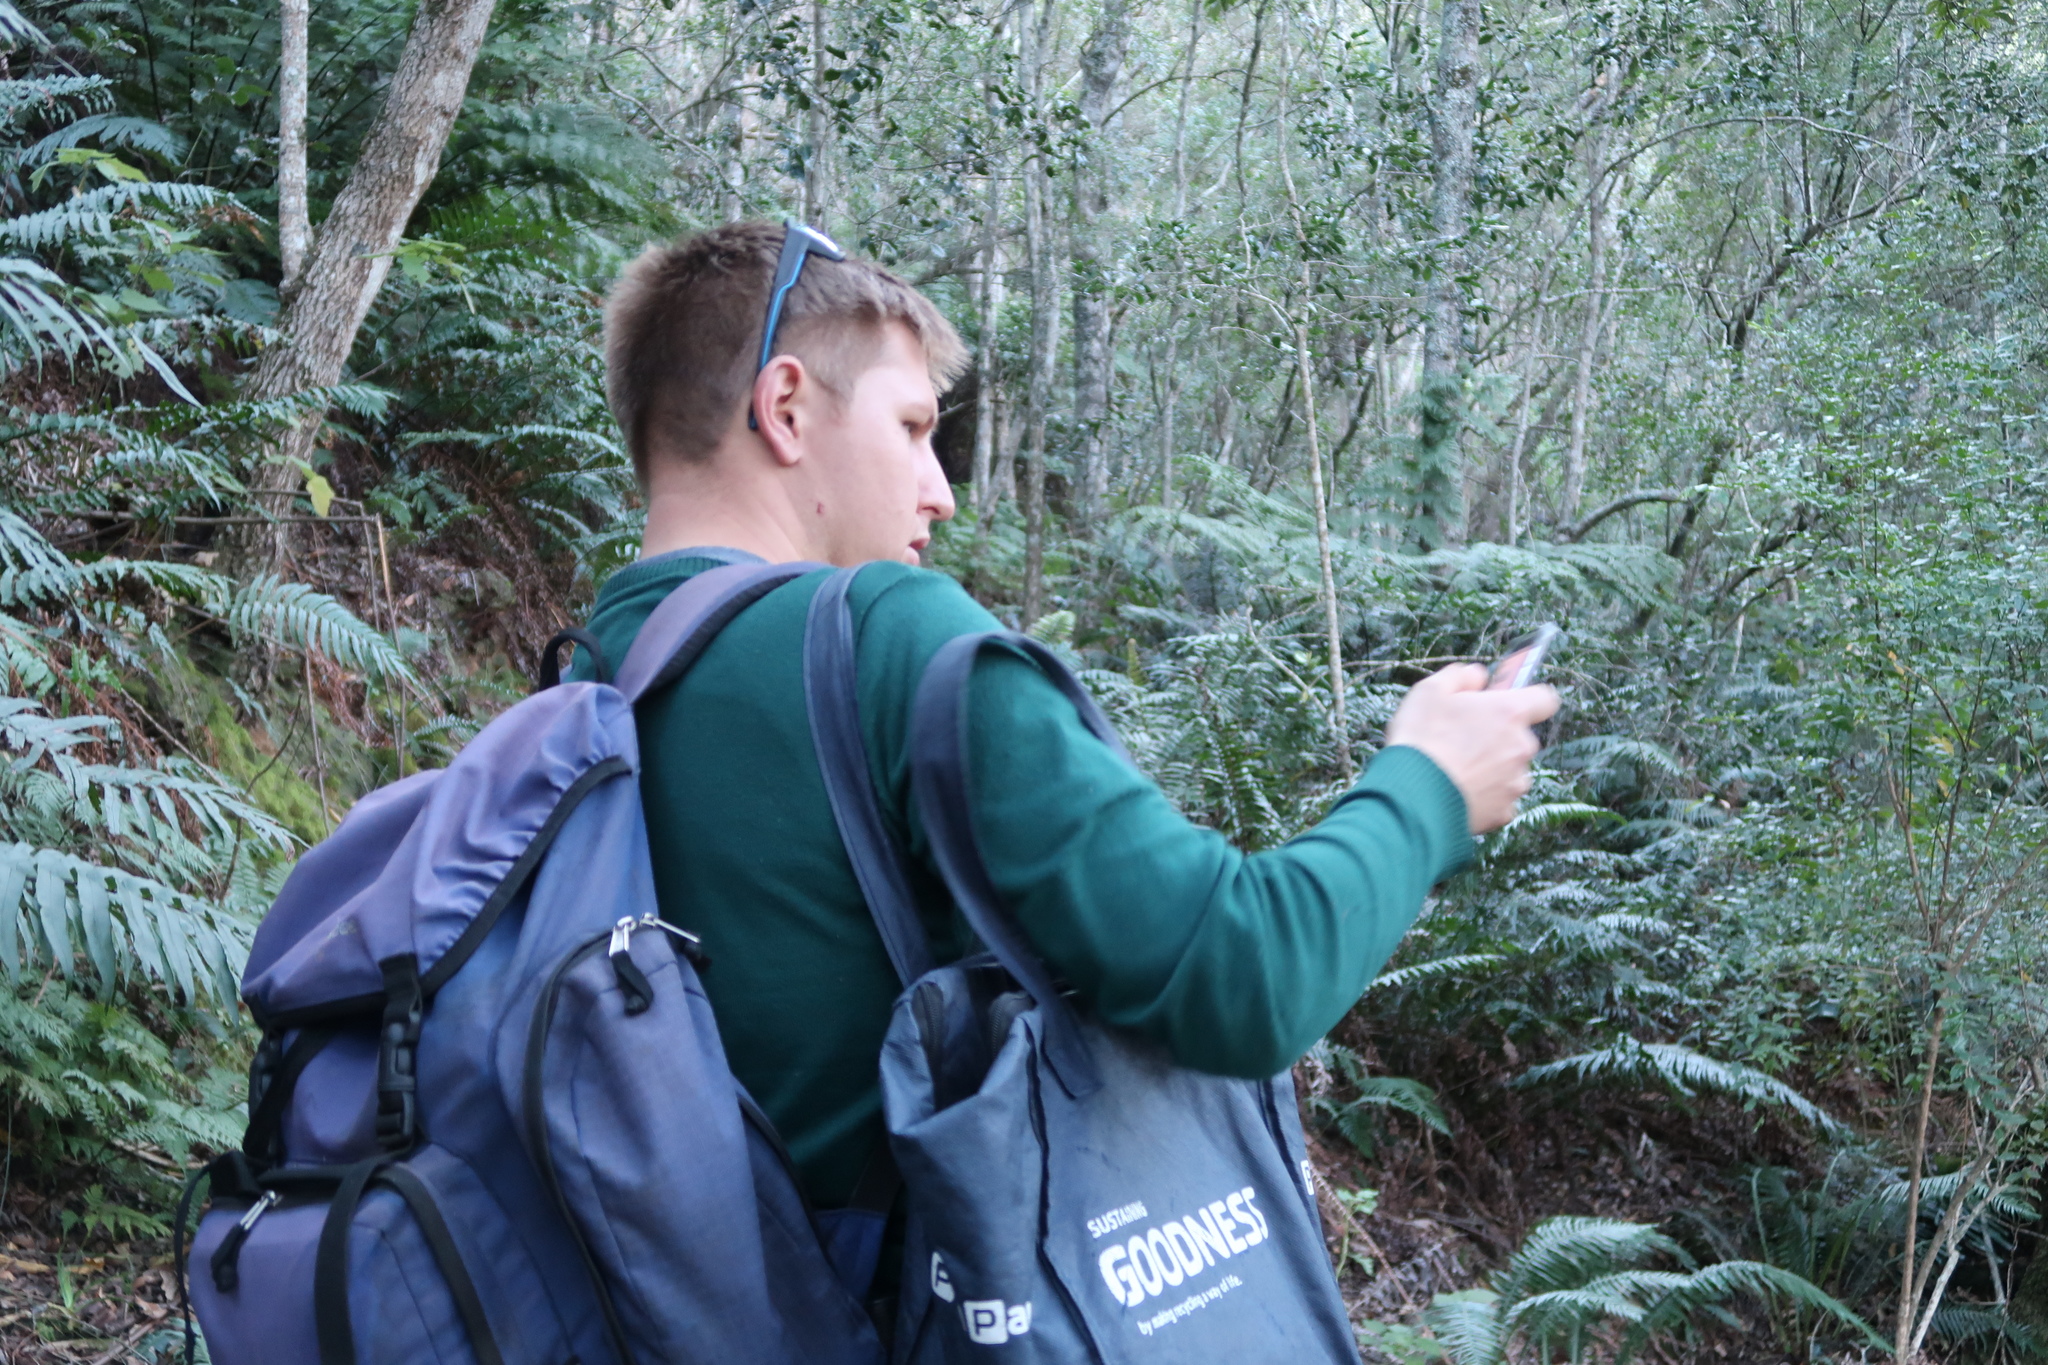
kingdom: Plantae
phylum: Tracheophyta
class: Polypodiopsida
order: Cyatheales
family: Cyatheaceae
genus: Gymnosphaera
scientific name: Gymnosphaera capensis
